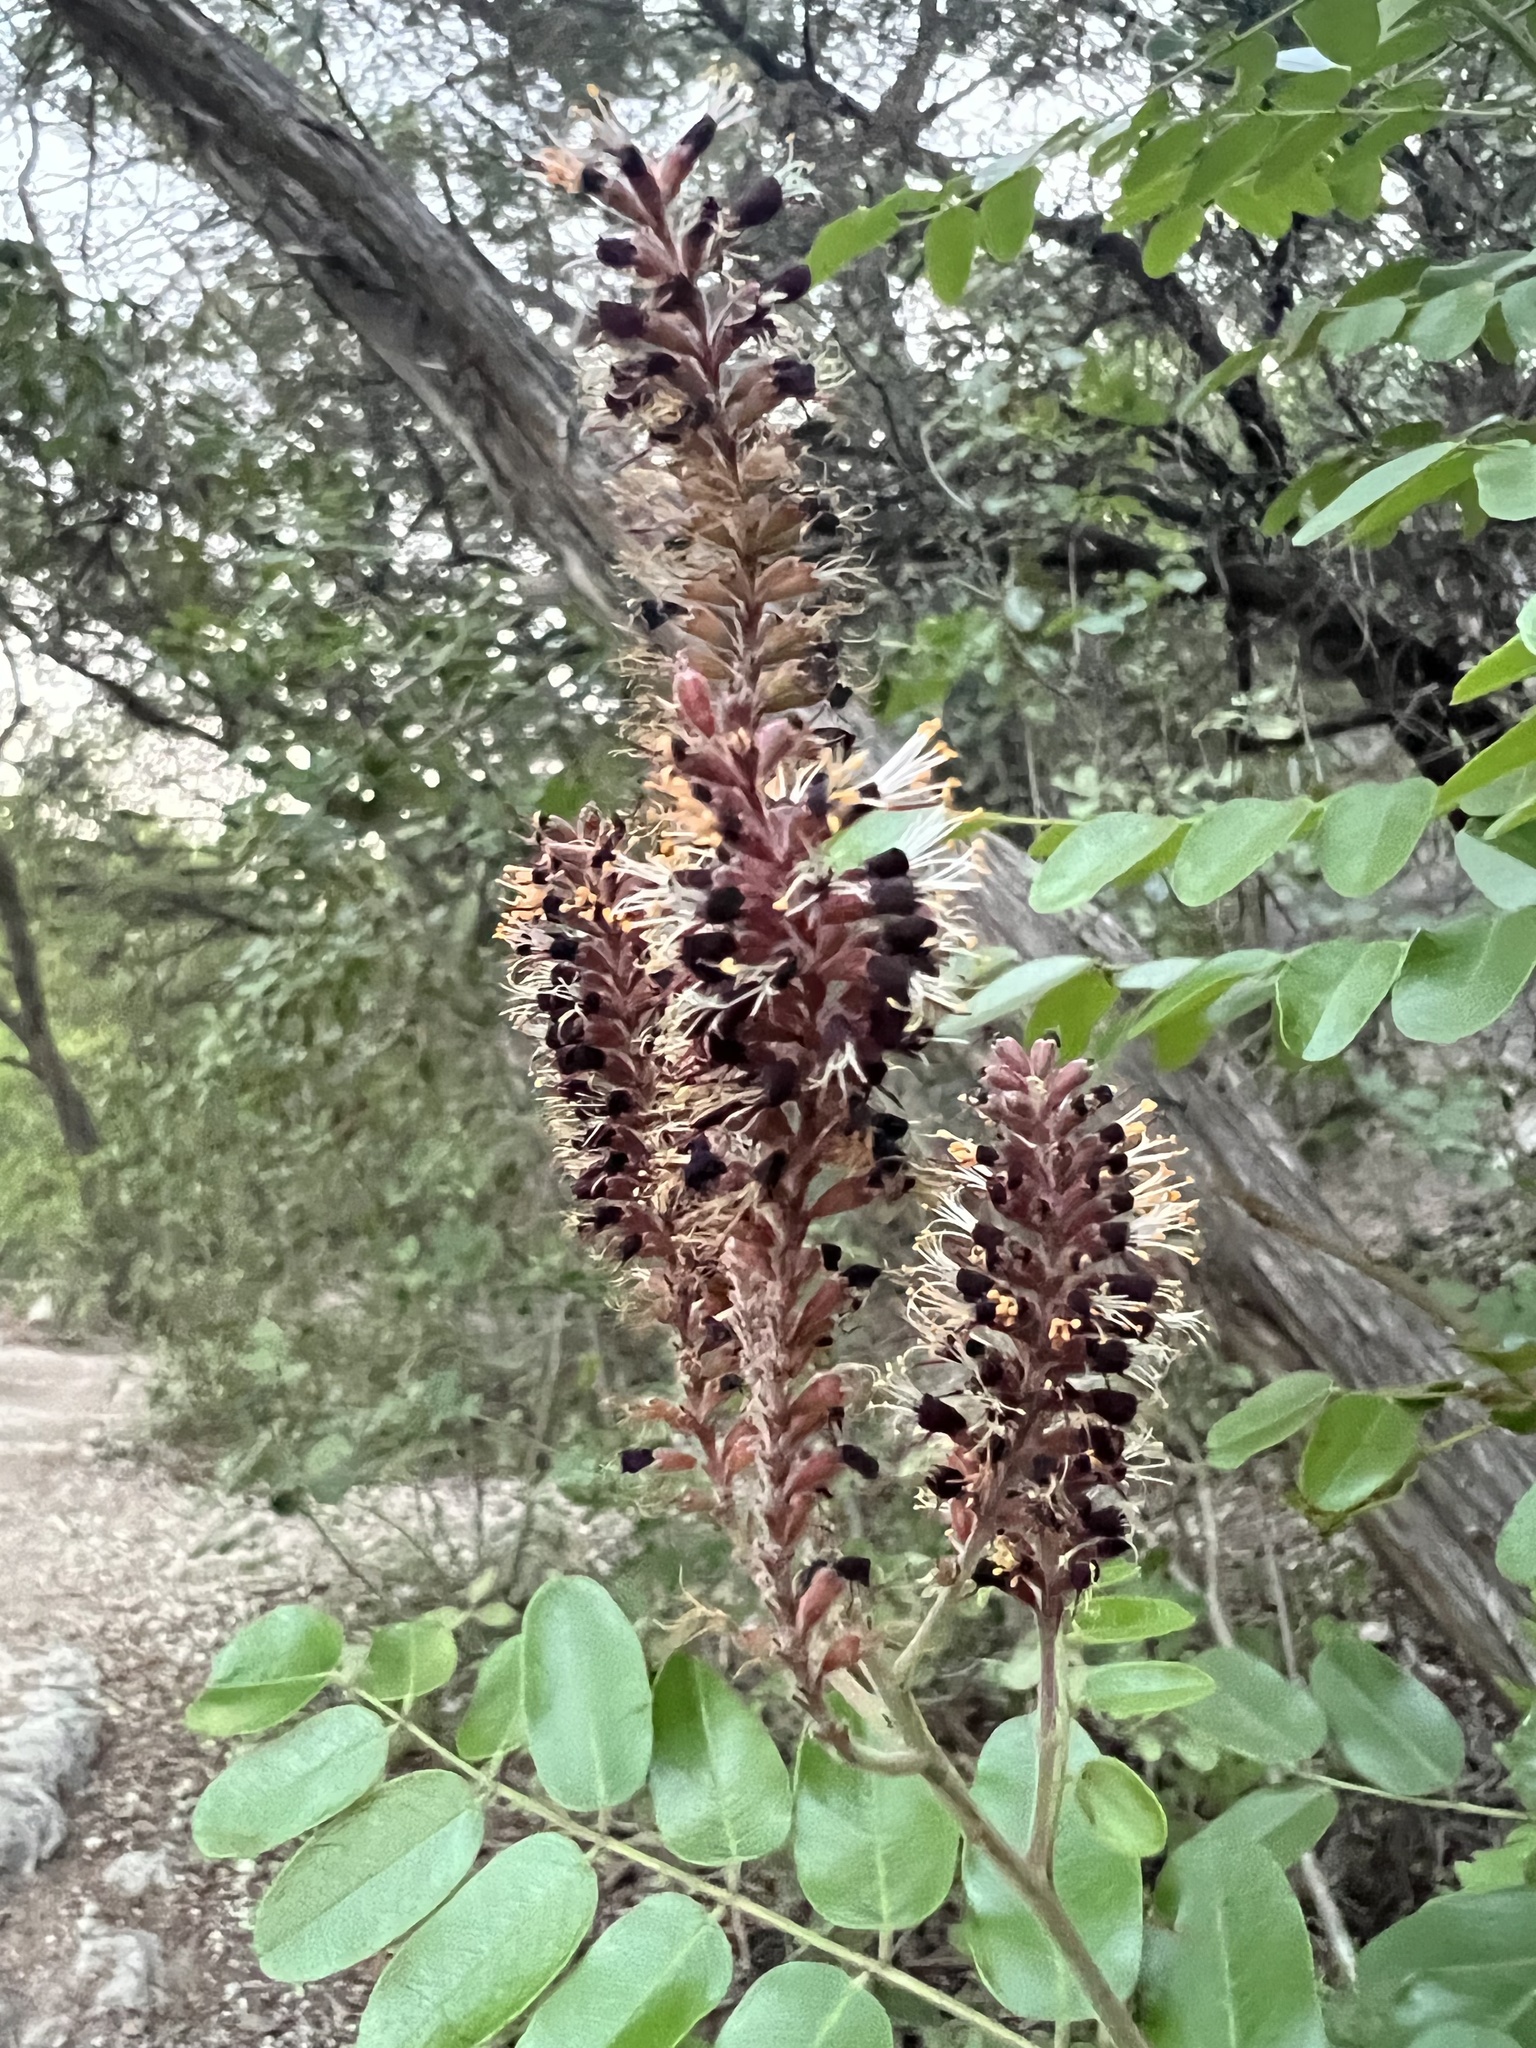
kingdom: Plantae
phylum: Tracheophyta
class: Magnoliopsida
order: Fabales
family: Fabaceae
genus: Amorpha
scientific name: Amorpha fruticosa
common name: False indigo
